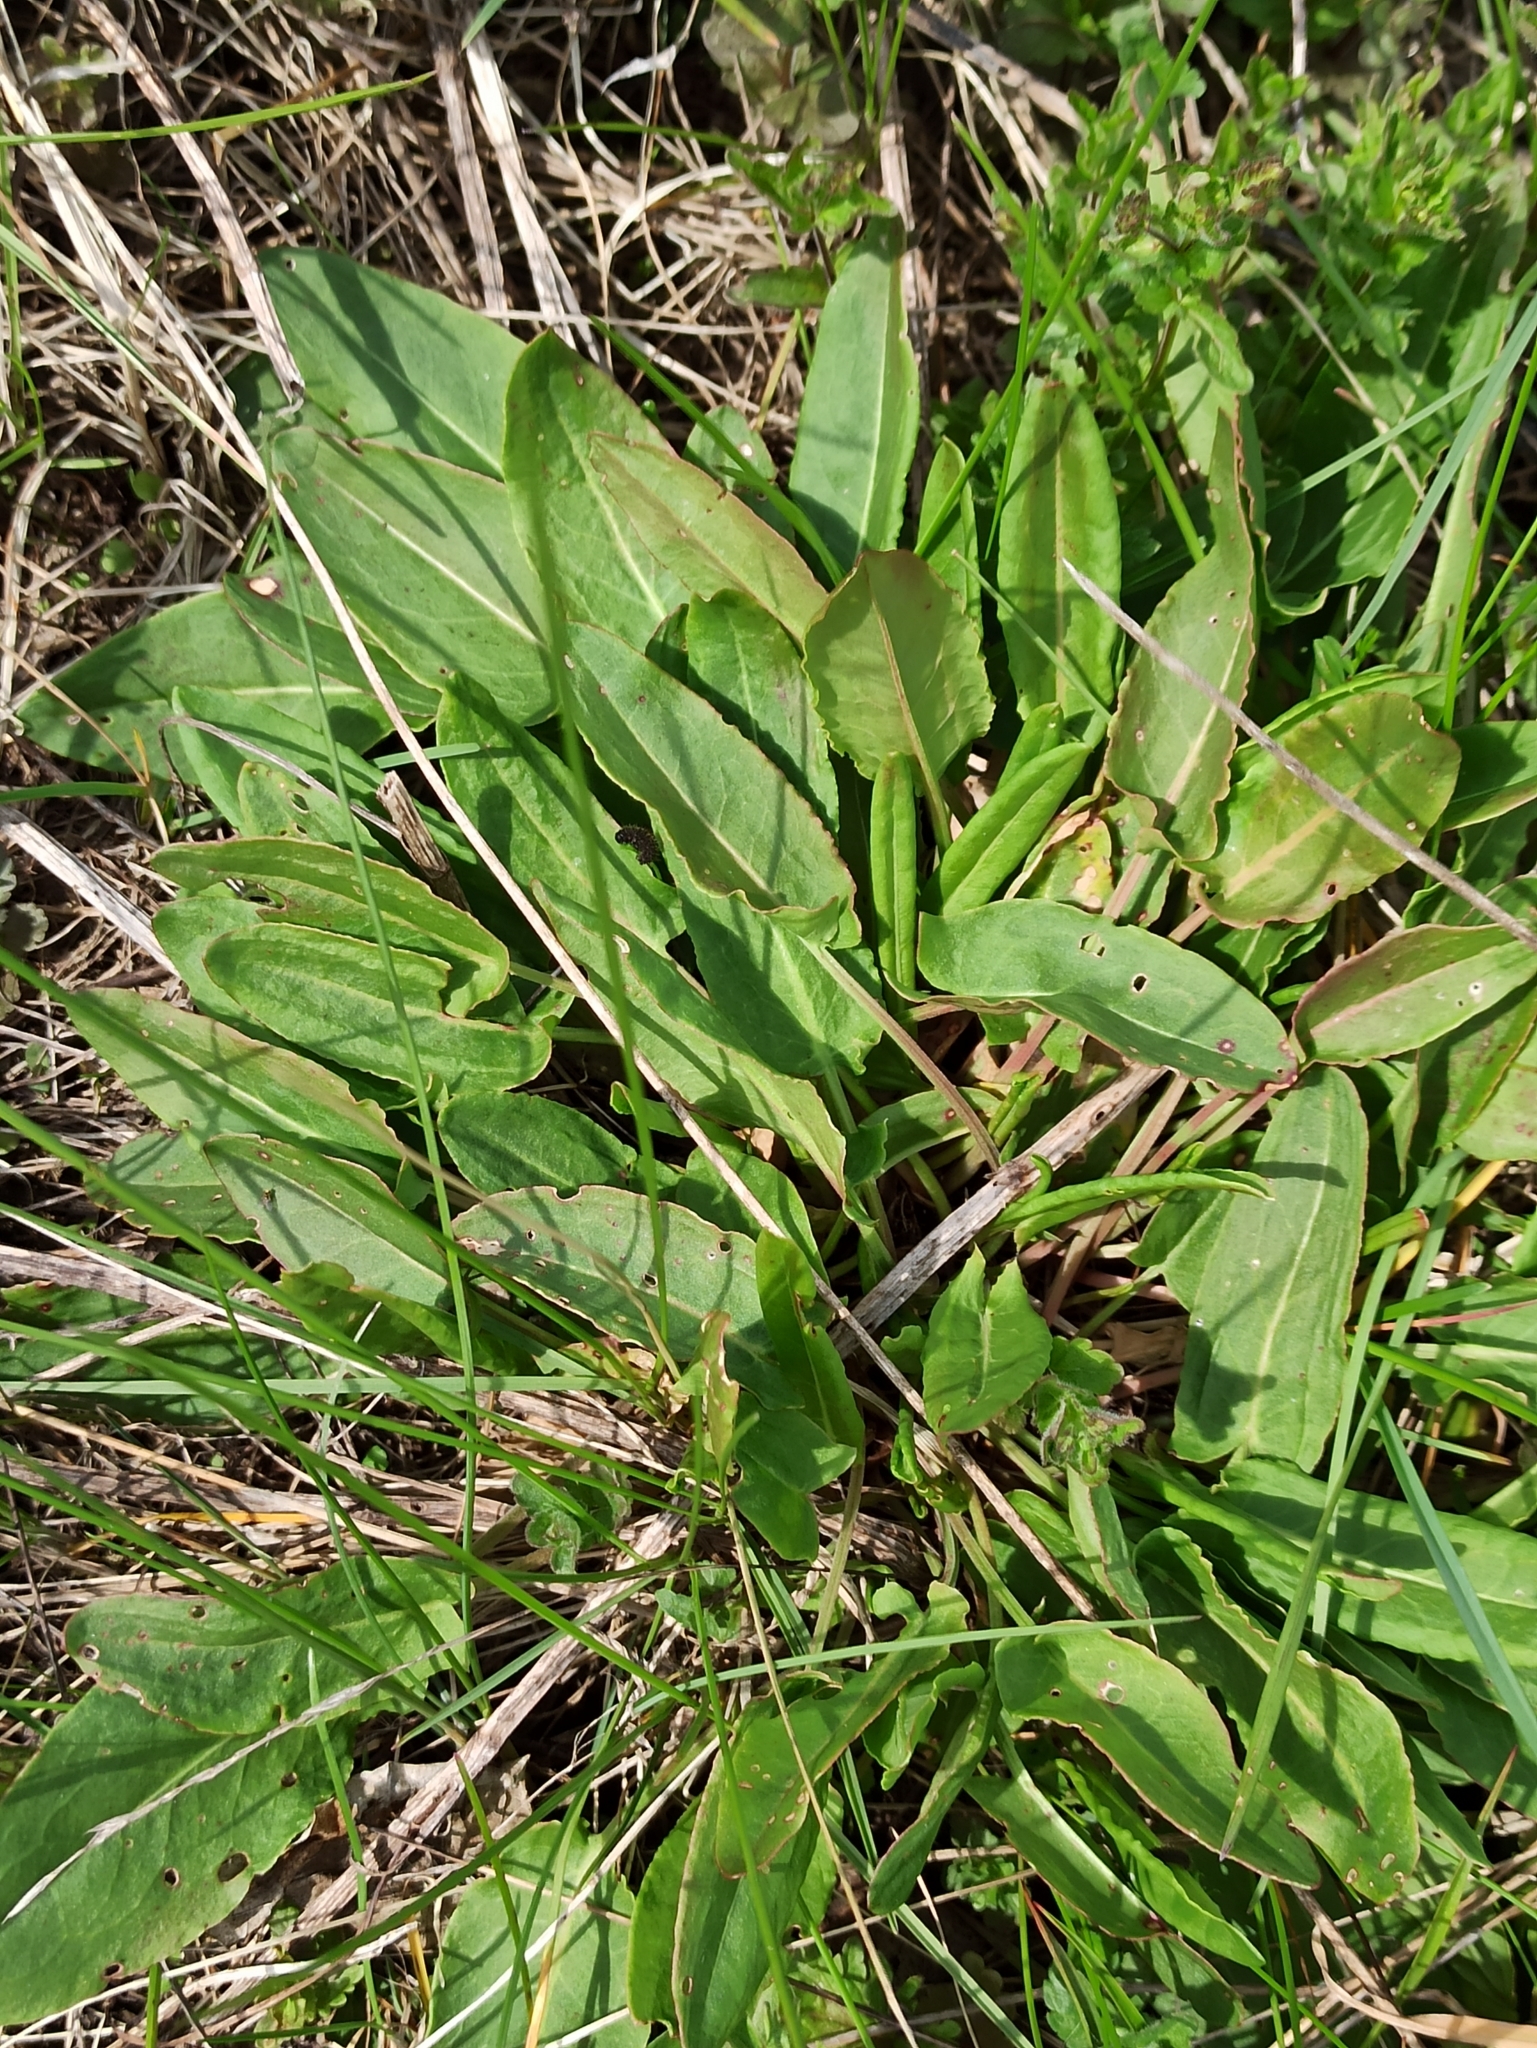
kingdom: Plantae
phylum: Tracheophyta
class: Magnoliopsida
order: Caryophyllales
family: Polygonaceae
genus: Rumex
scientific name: Rumex acetosa
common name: Garden sorrel
